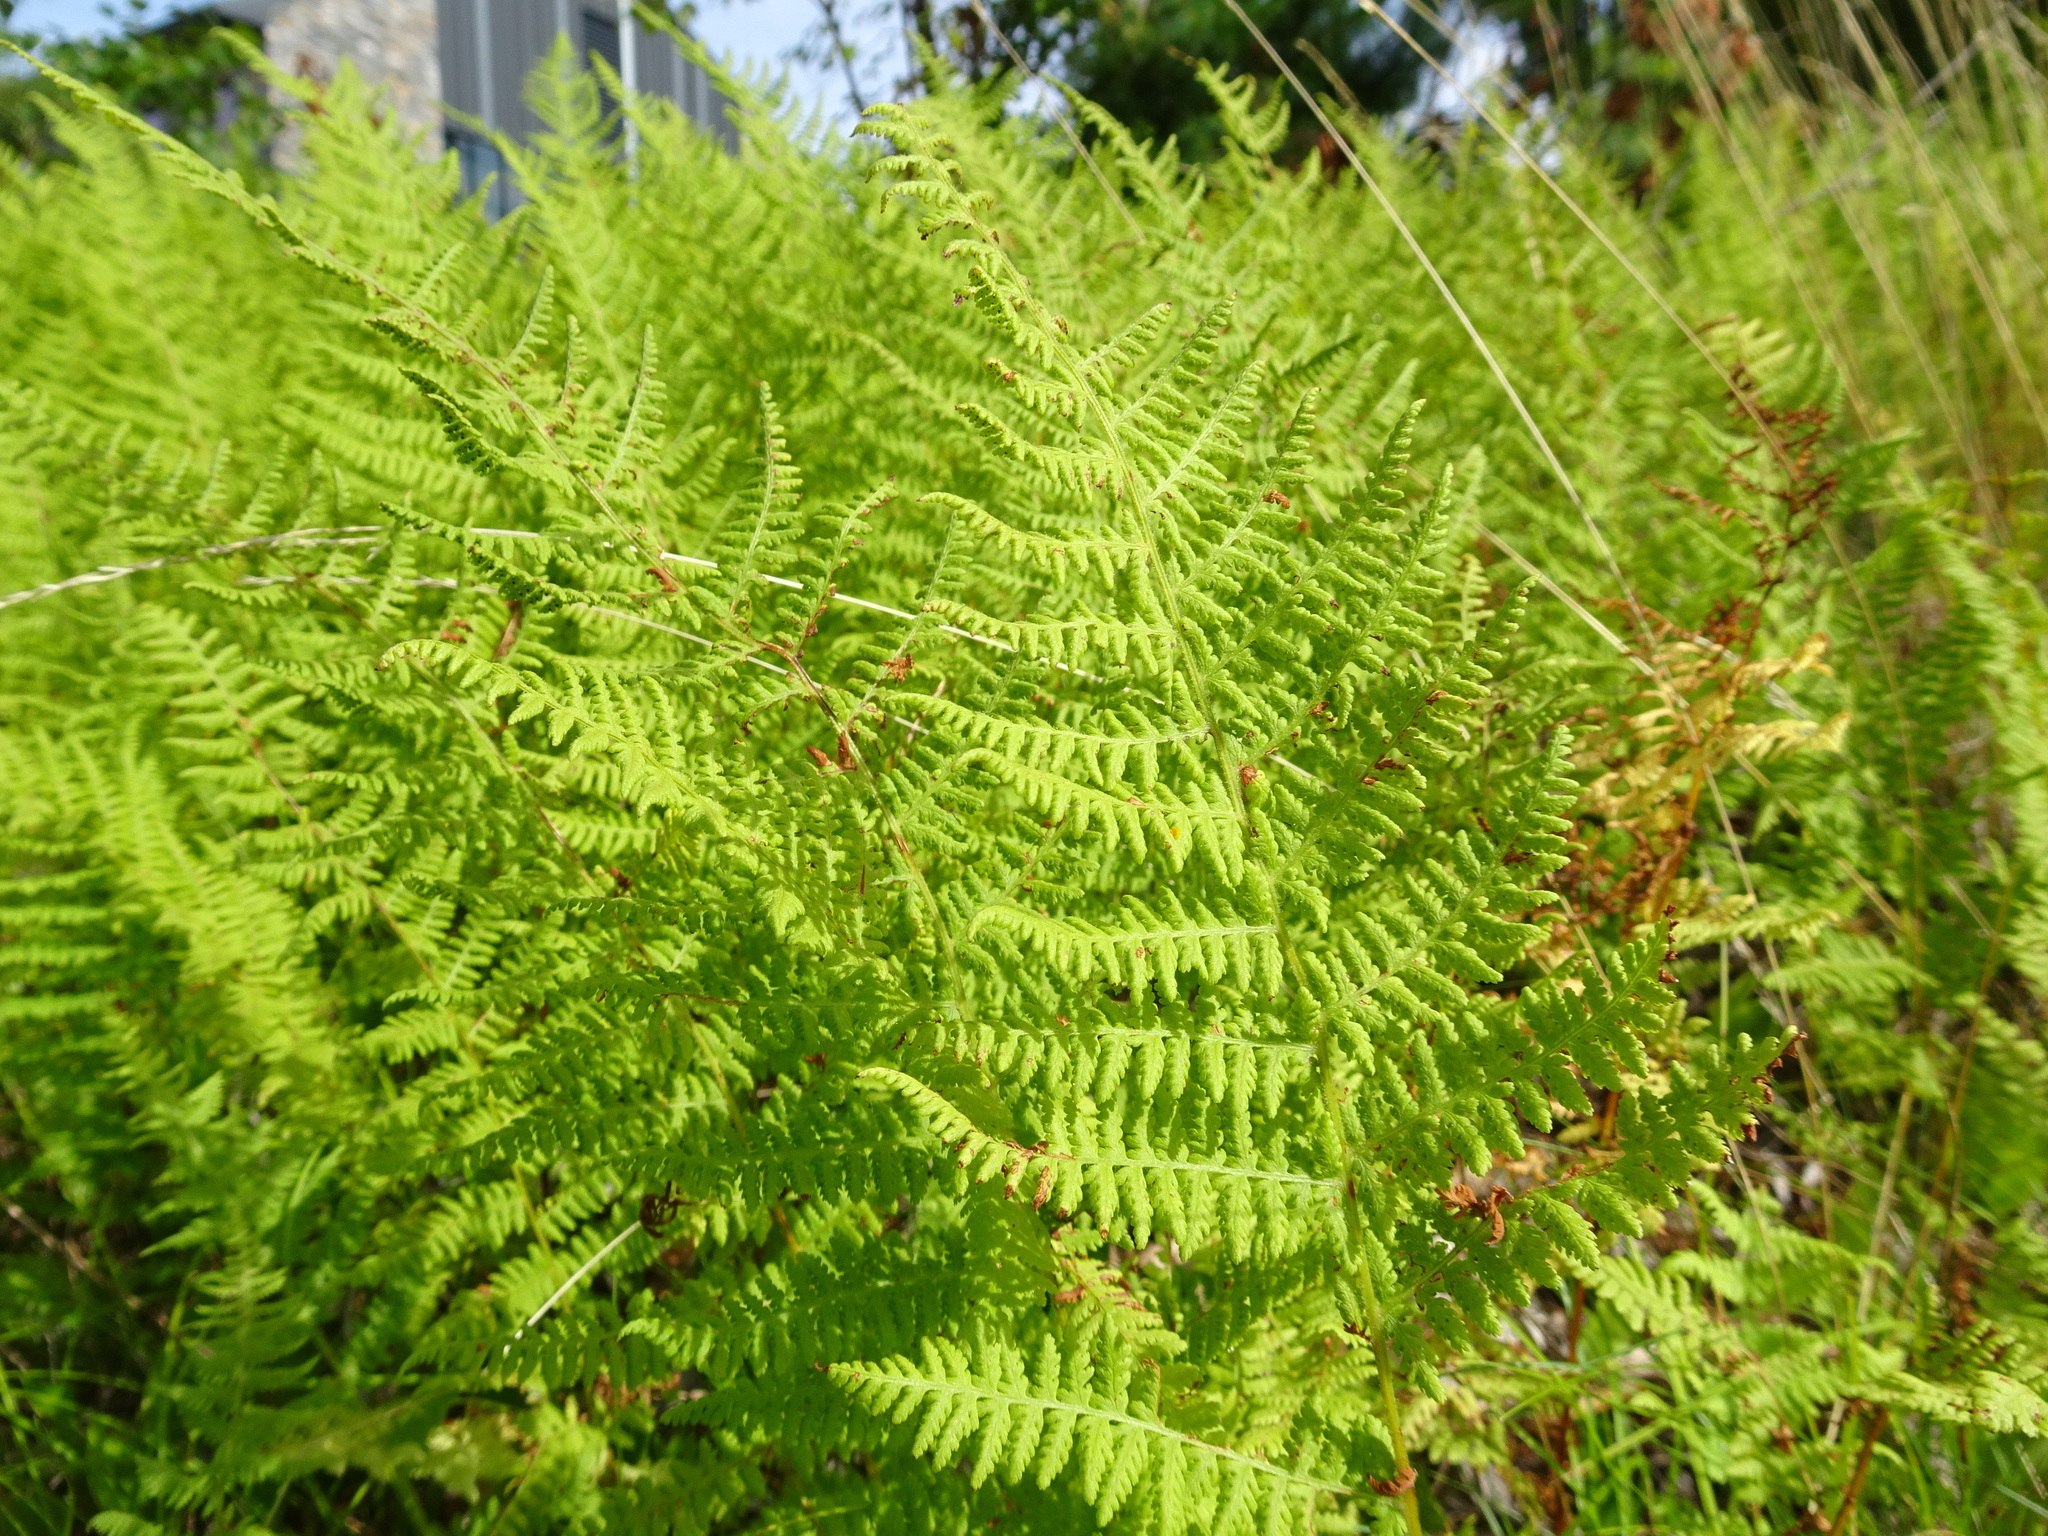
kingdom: Plantae
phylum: Tracheophyta
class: Polypodiopsida
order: Polypodiales
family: Dennstaedtiaceae
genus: Sitobolium
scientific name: Sitobolium punctilobum
